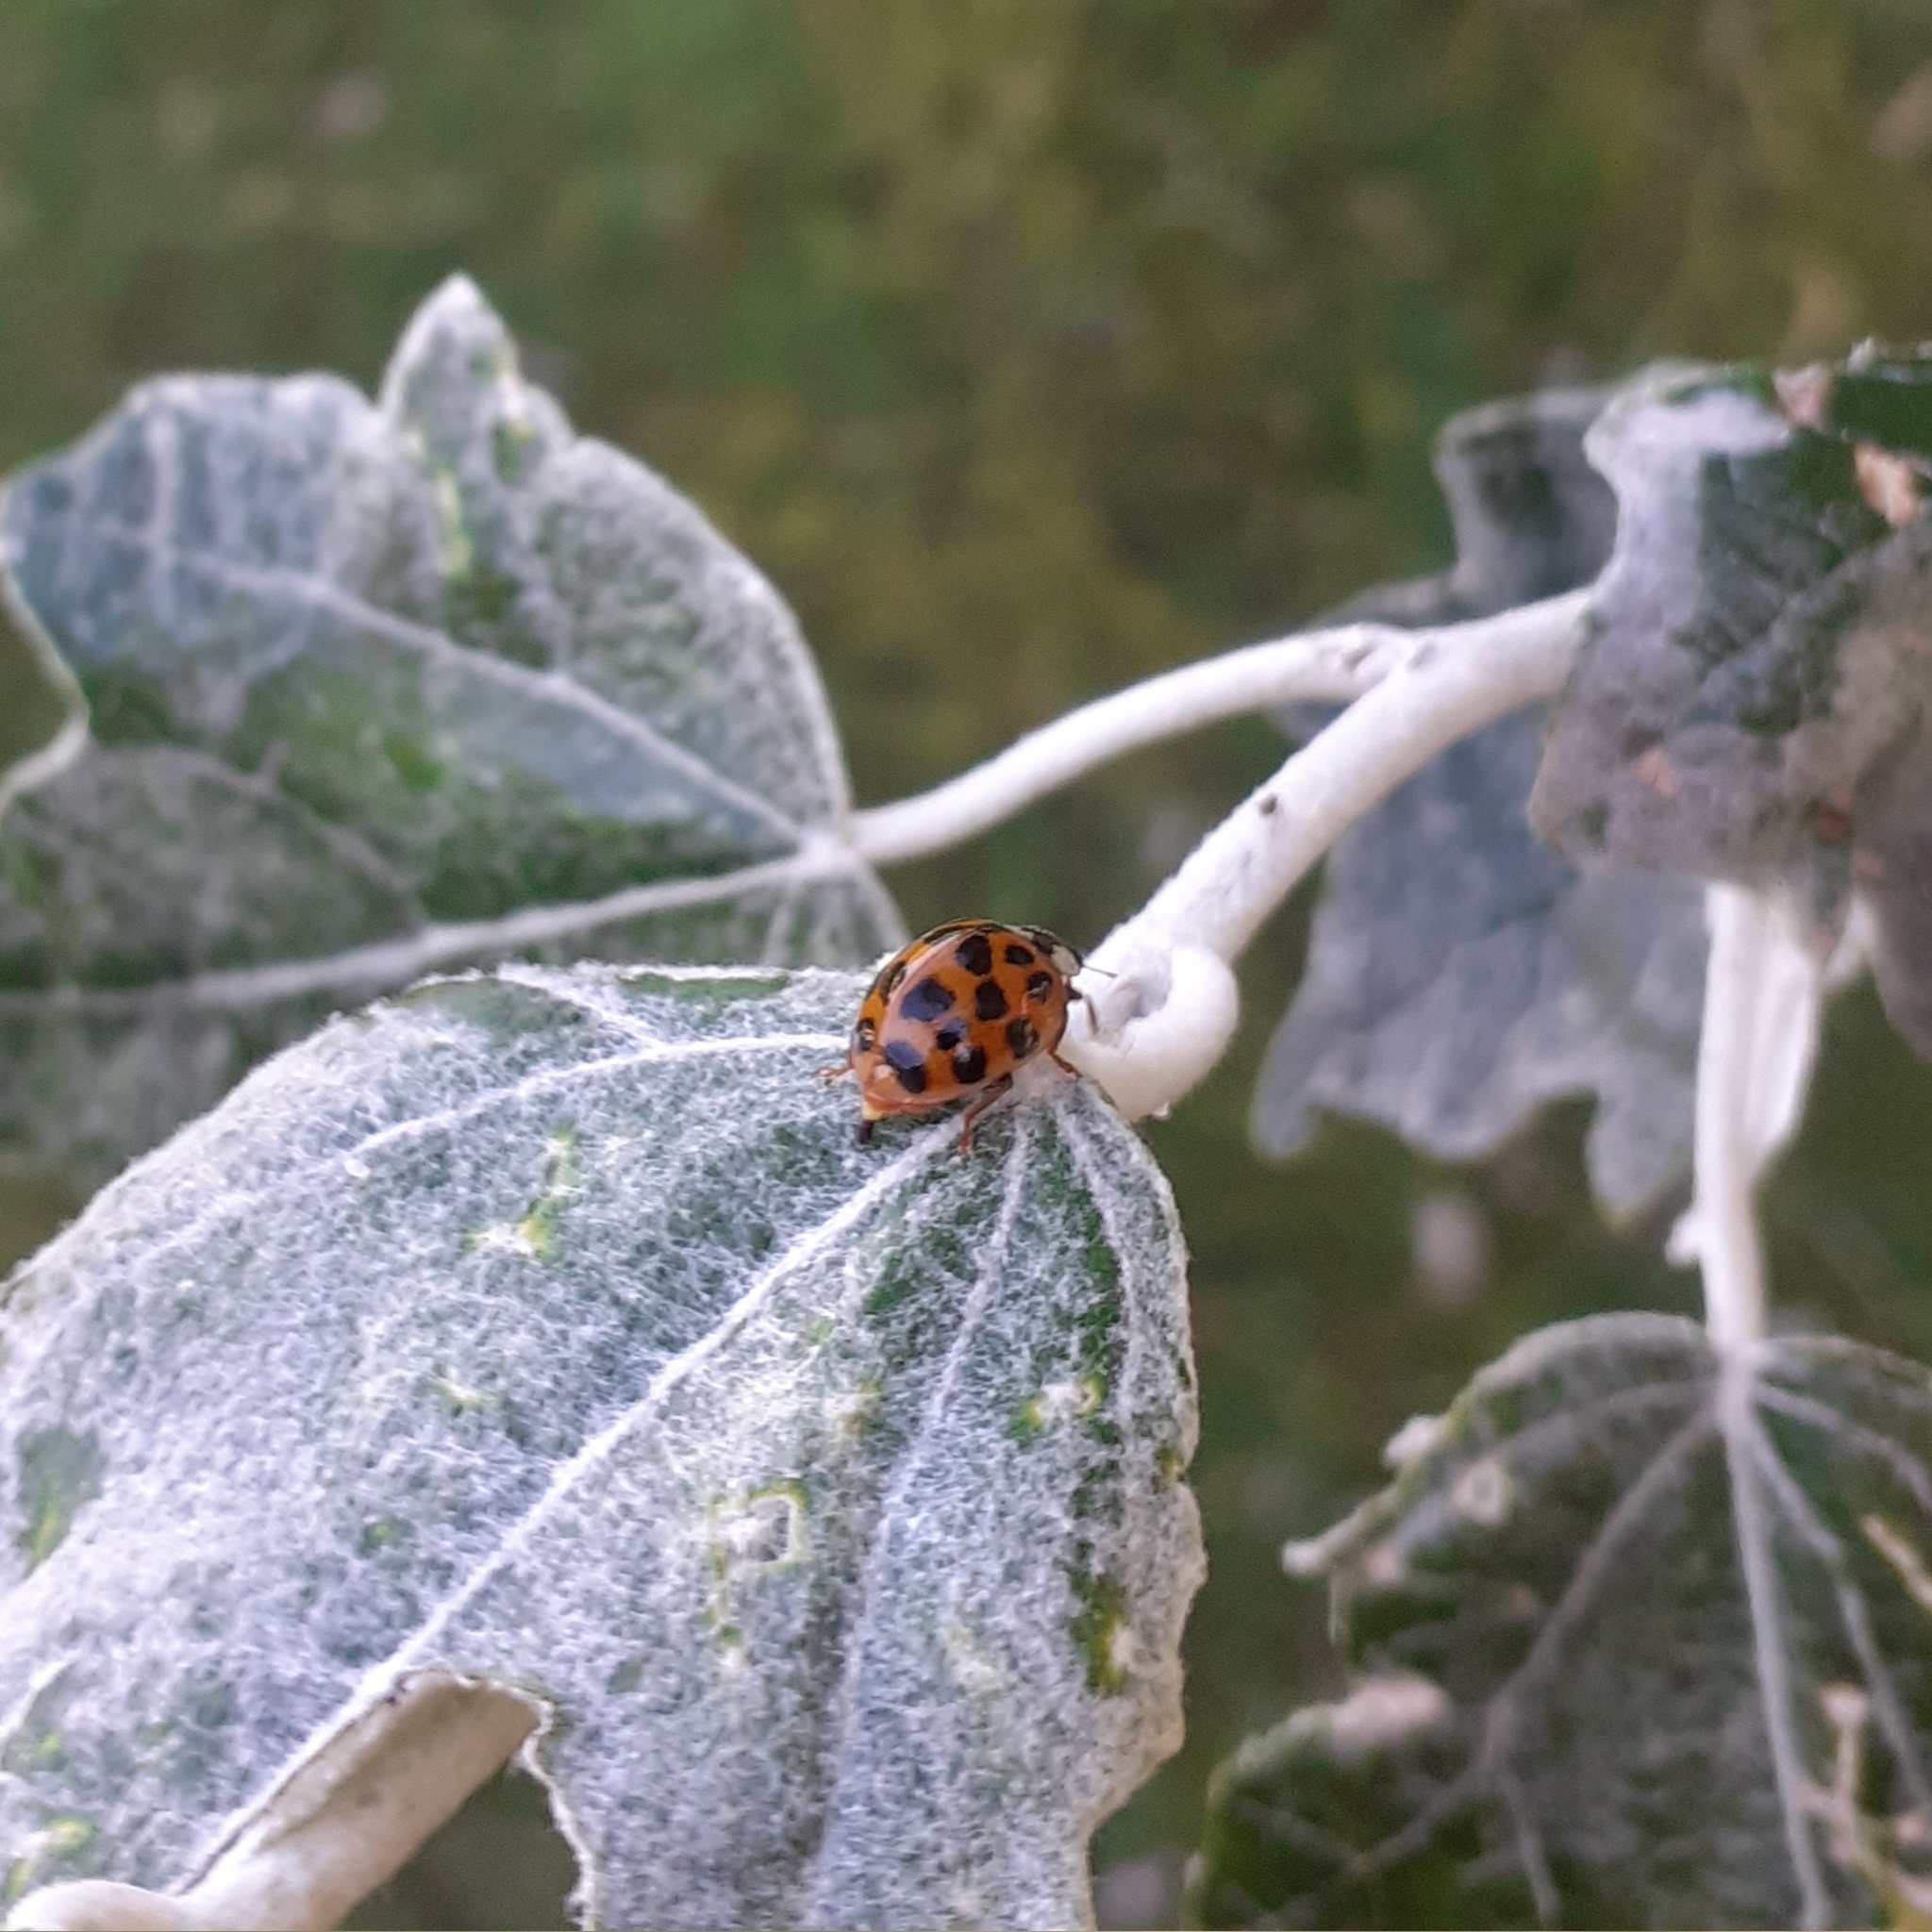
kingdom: Animalia
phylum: Arthropoda
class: Insecta
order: Coleoptera
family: Coccinellidae
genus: Harmonia
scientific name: Harmonia axyridis
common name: Harlequin ladybird
